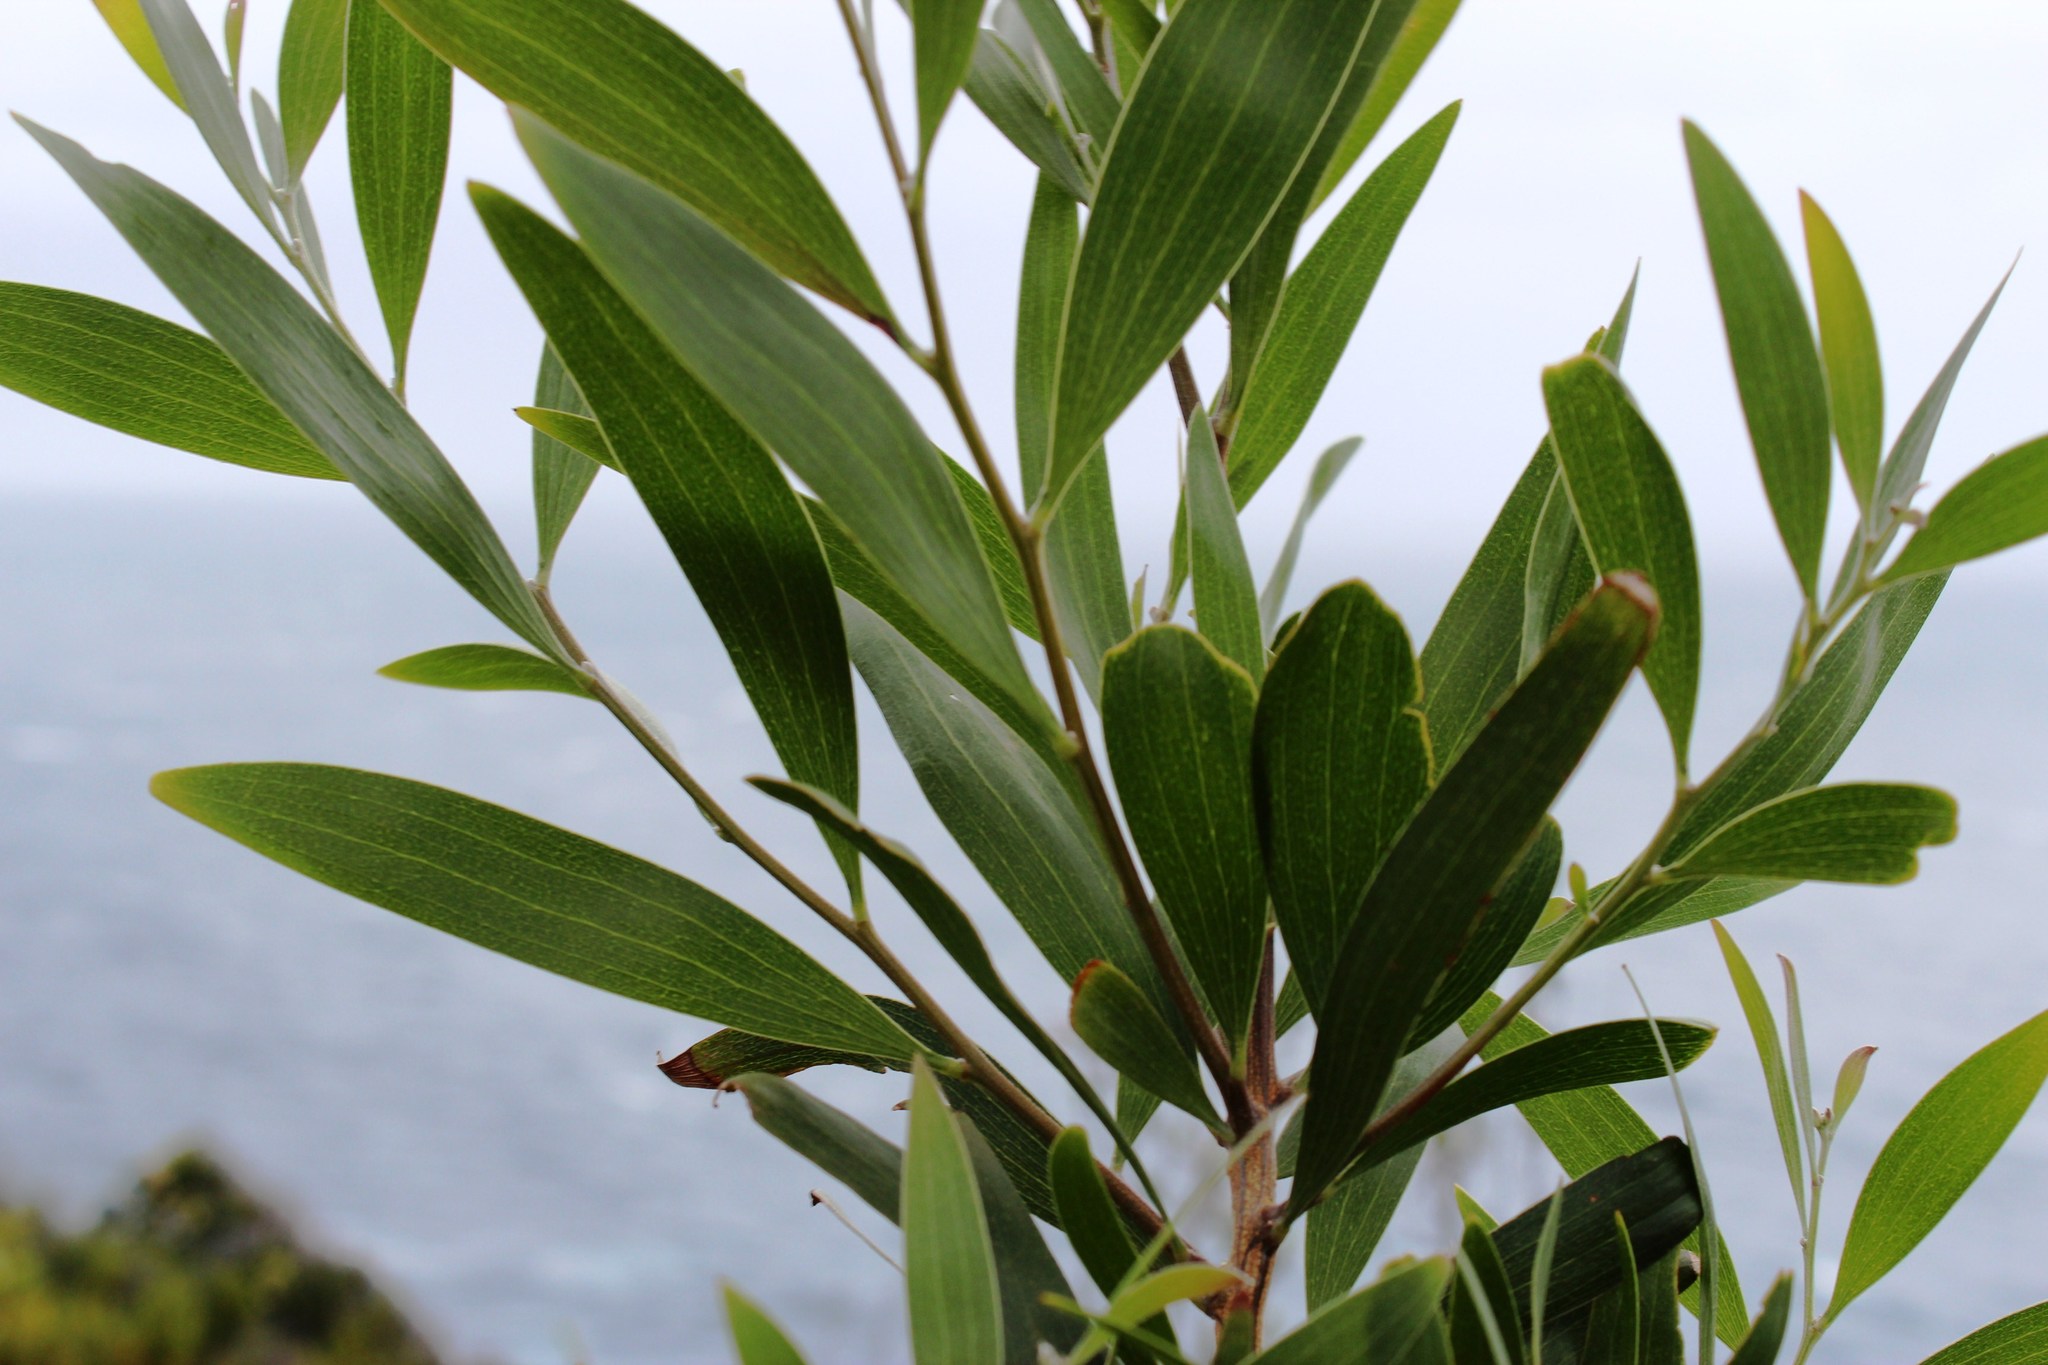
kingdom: Plantae
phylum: Tracheophyta
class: Magnoliopsida
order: Fabales
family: Fabaceae
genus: Acacia
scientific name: Acacia cyclops
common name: Coastal wattle
